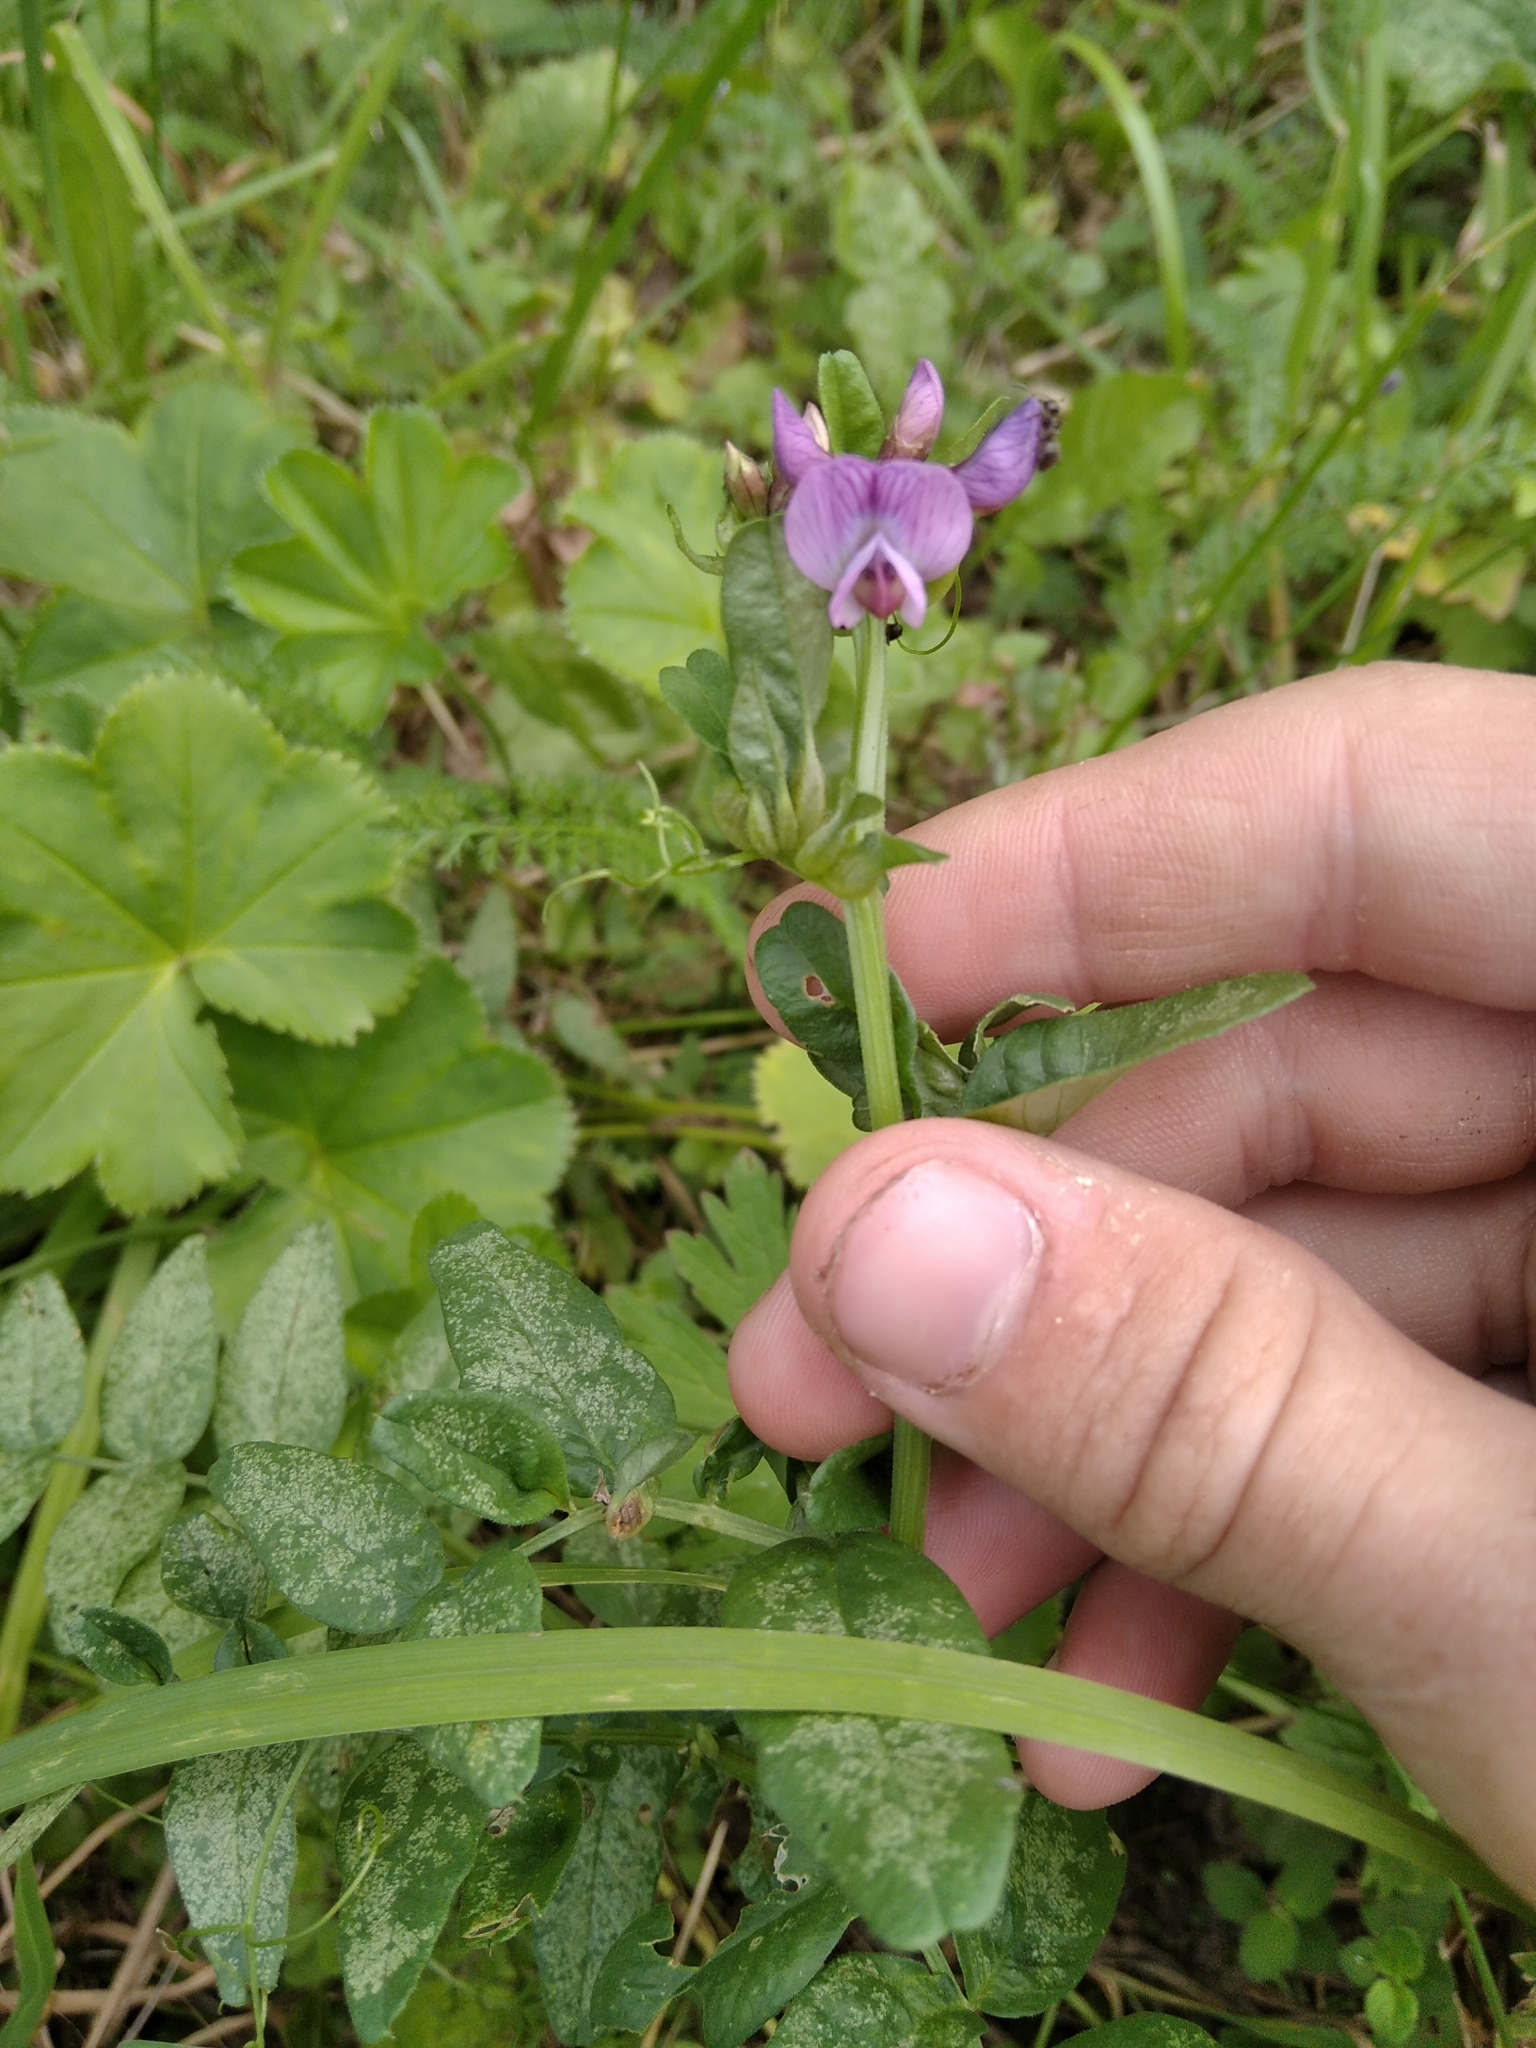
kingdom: Plantae
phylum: Tracheophyta
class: Magnoliopsida
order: Fabales
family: Fabaceae
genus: Vicia
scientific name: Vicia sepium
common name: Bush vetch
